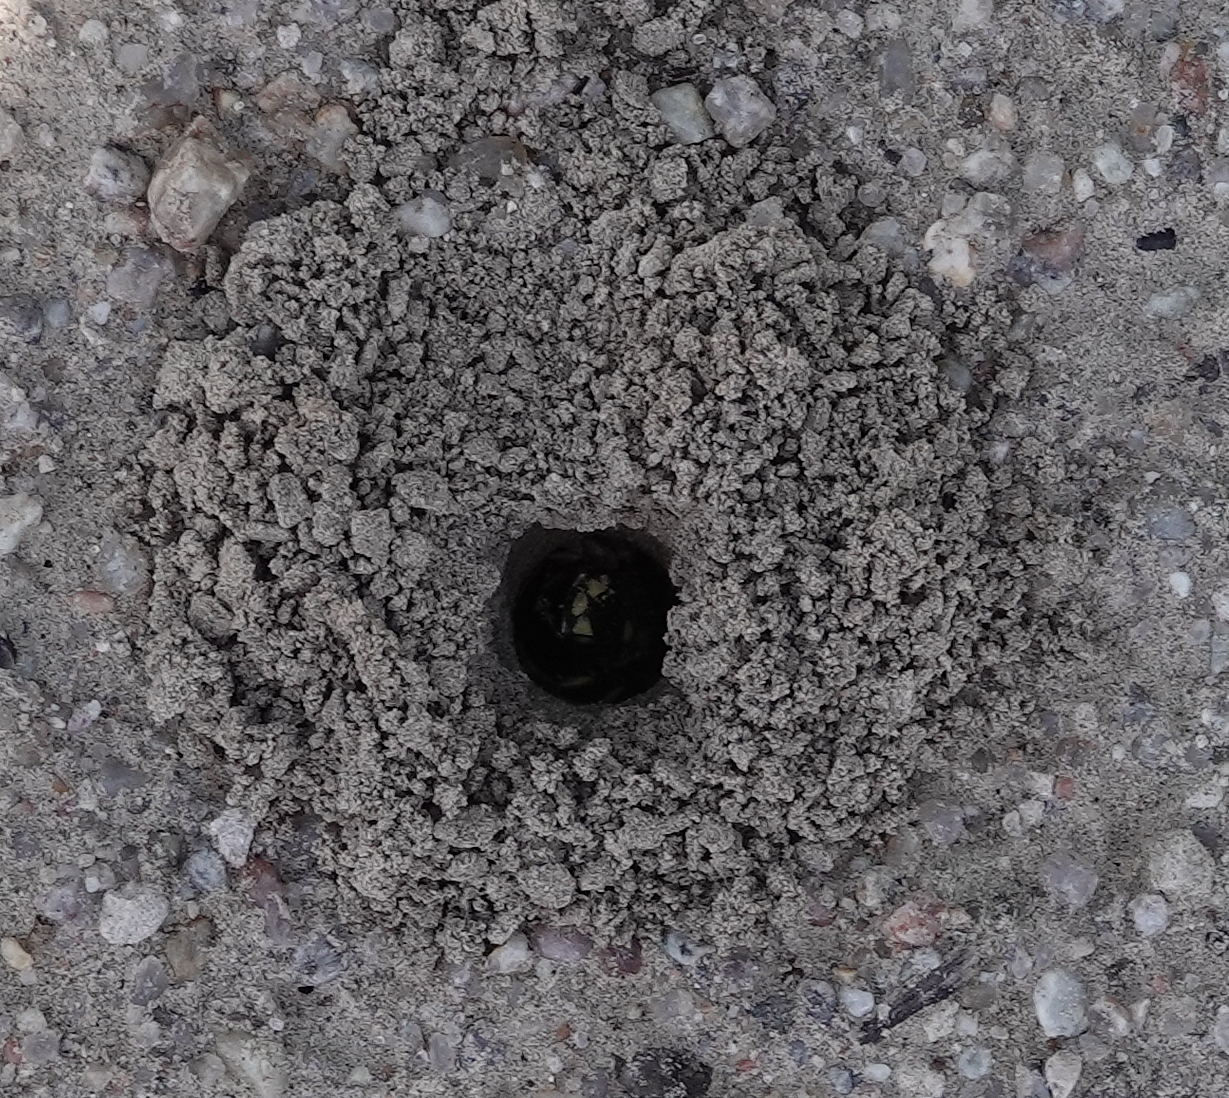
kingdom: Animalia
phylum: Arthropoda
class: Insecta
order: Hymenoptera
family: Crabronidae
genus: Cerceris
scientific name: Cerceris fumipennis
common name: Smokey-winged beetle bandit wasp
